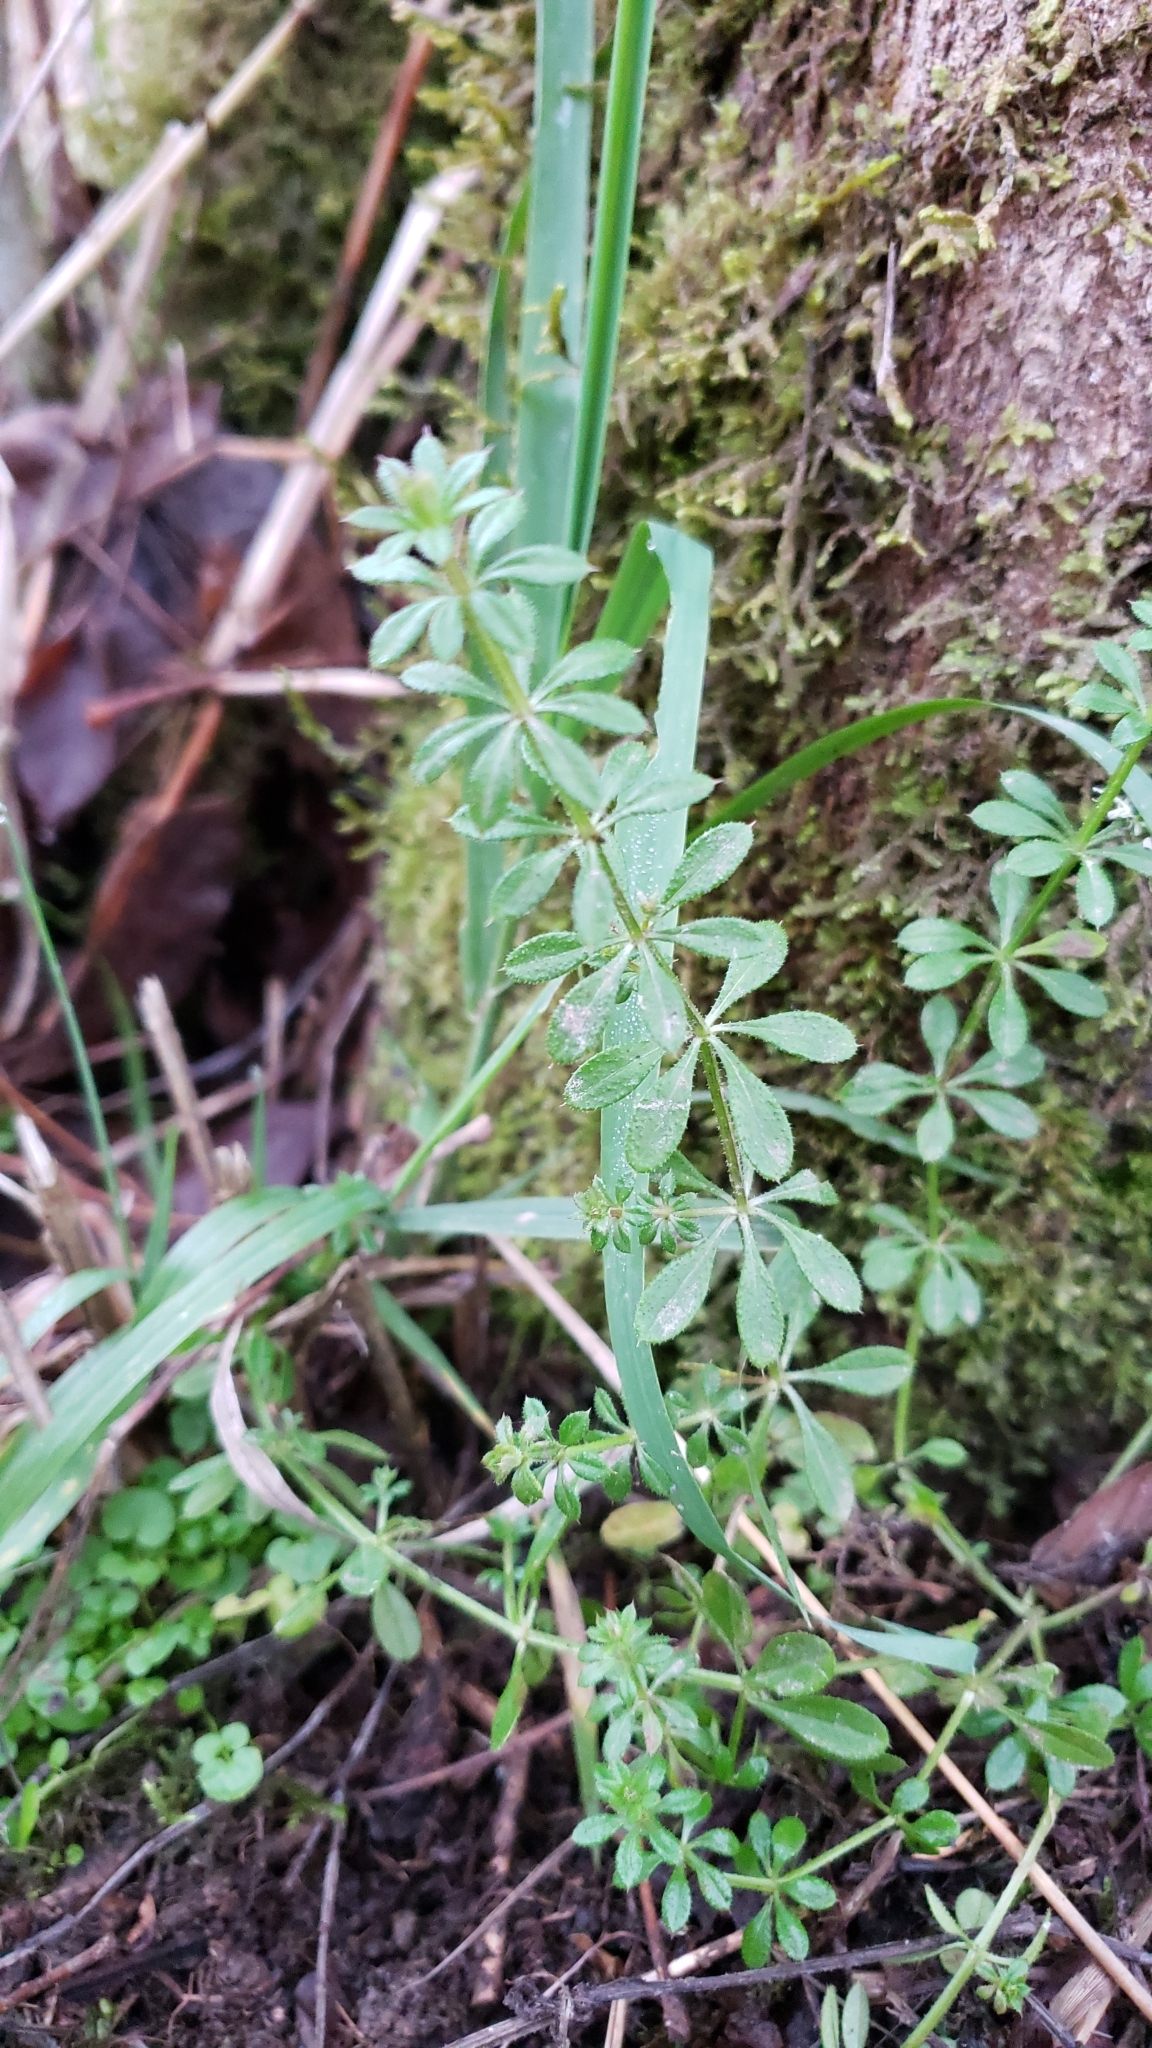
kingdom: Plantae
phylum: Tracheophyta
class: Magnoliopsida
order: Gentianales
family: Rubiaceae
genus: Galium
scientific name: Galium aparine
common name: Cleavers
